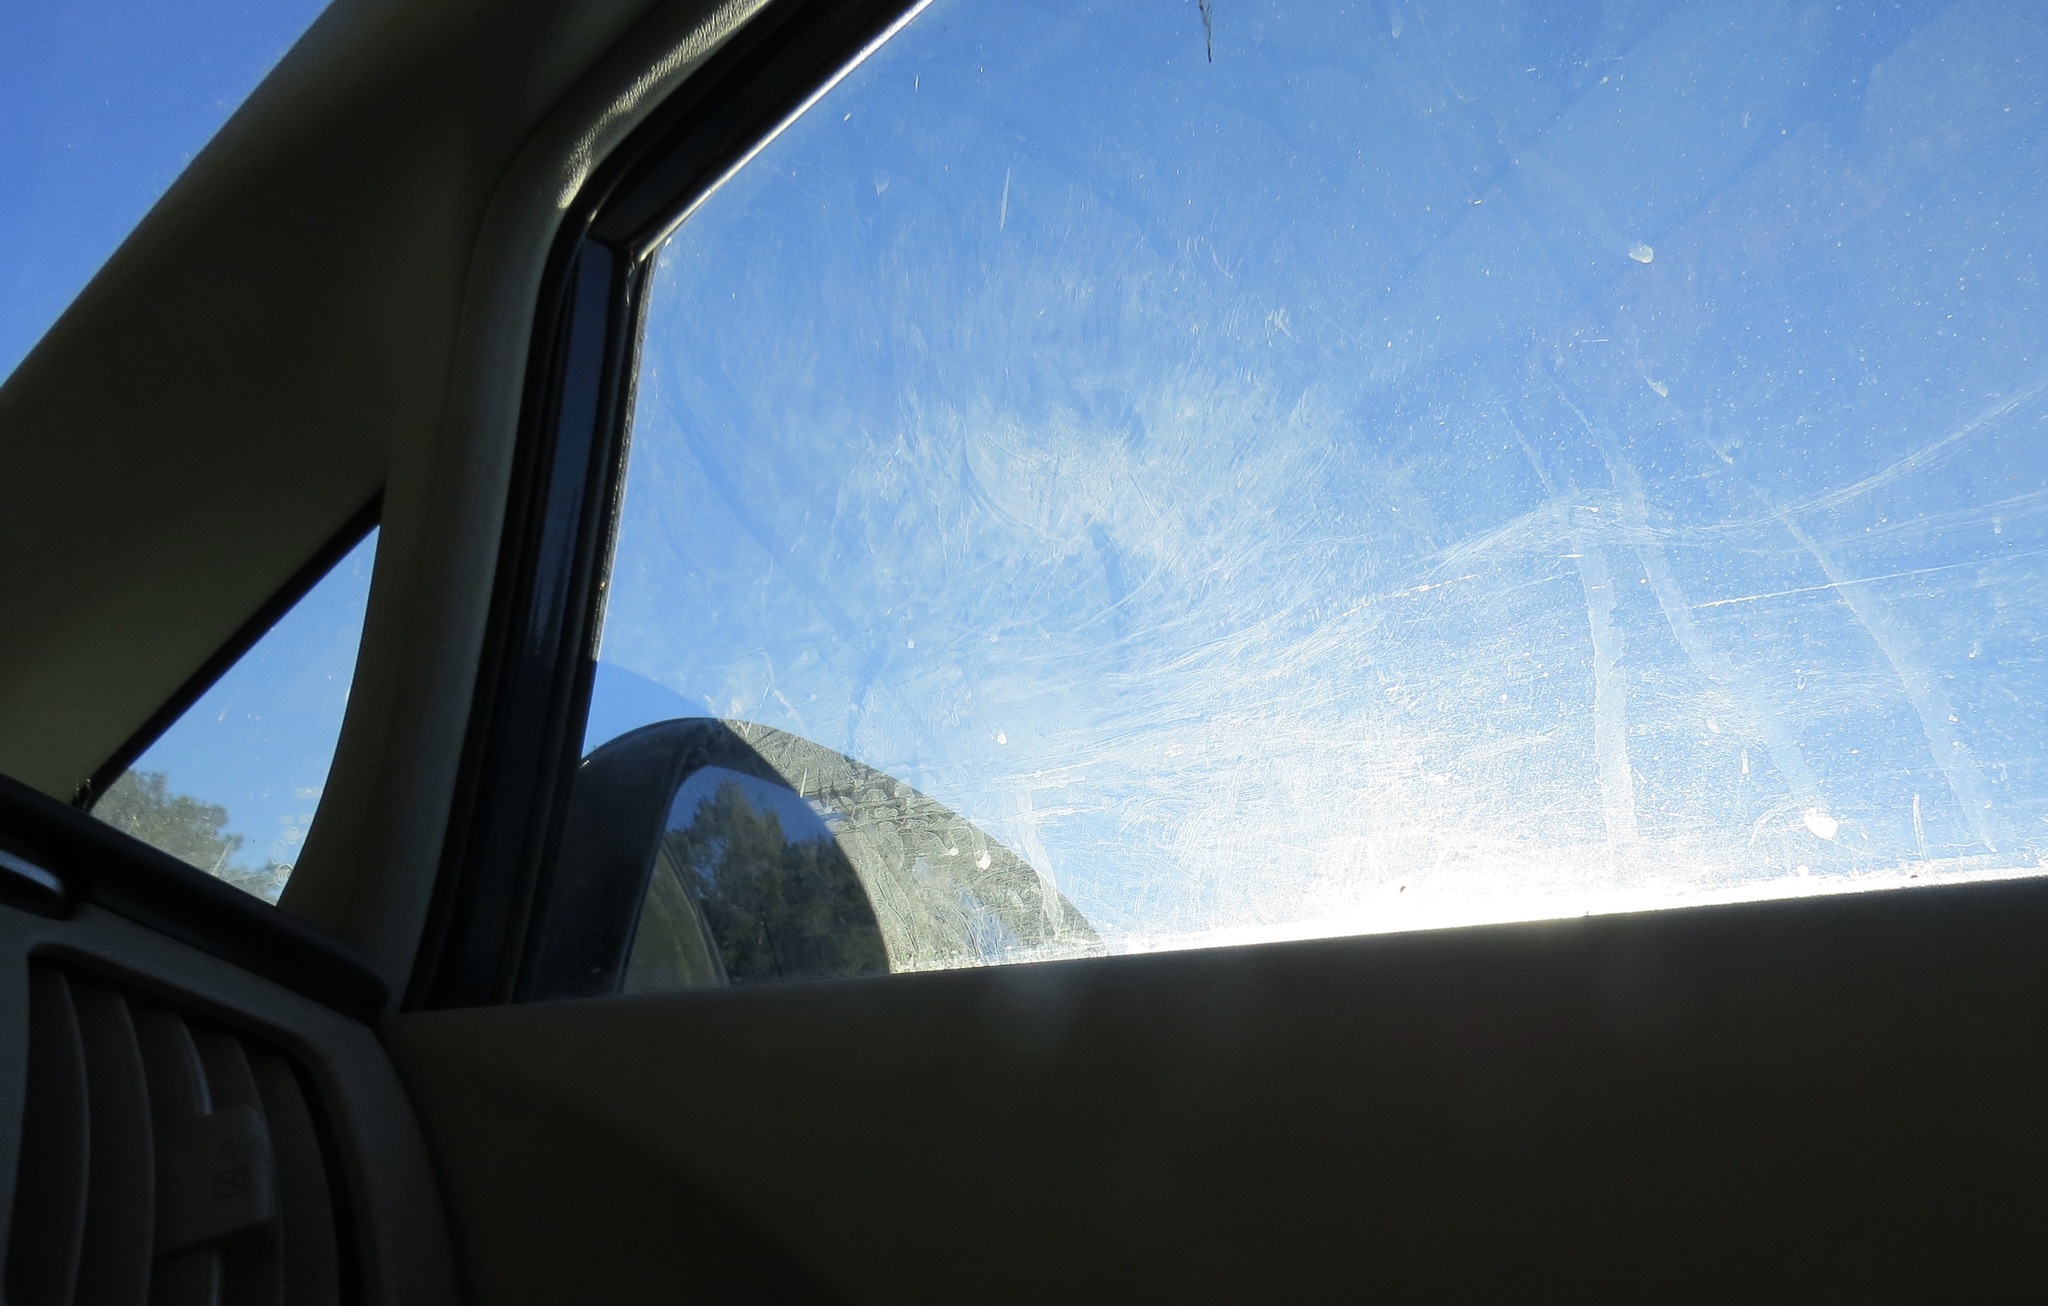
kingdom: Animalia
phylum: Chordata
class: Aves
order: Passeriformes
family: Passerellidae
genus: Melozone
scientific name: Melozone crissalis
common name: California towhee
